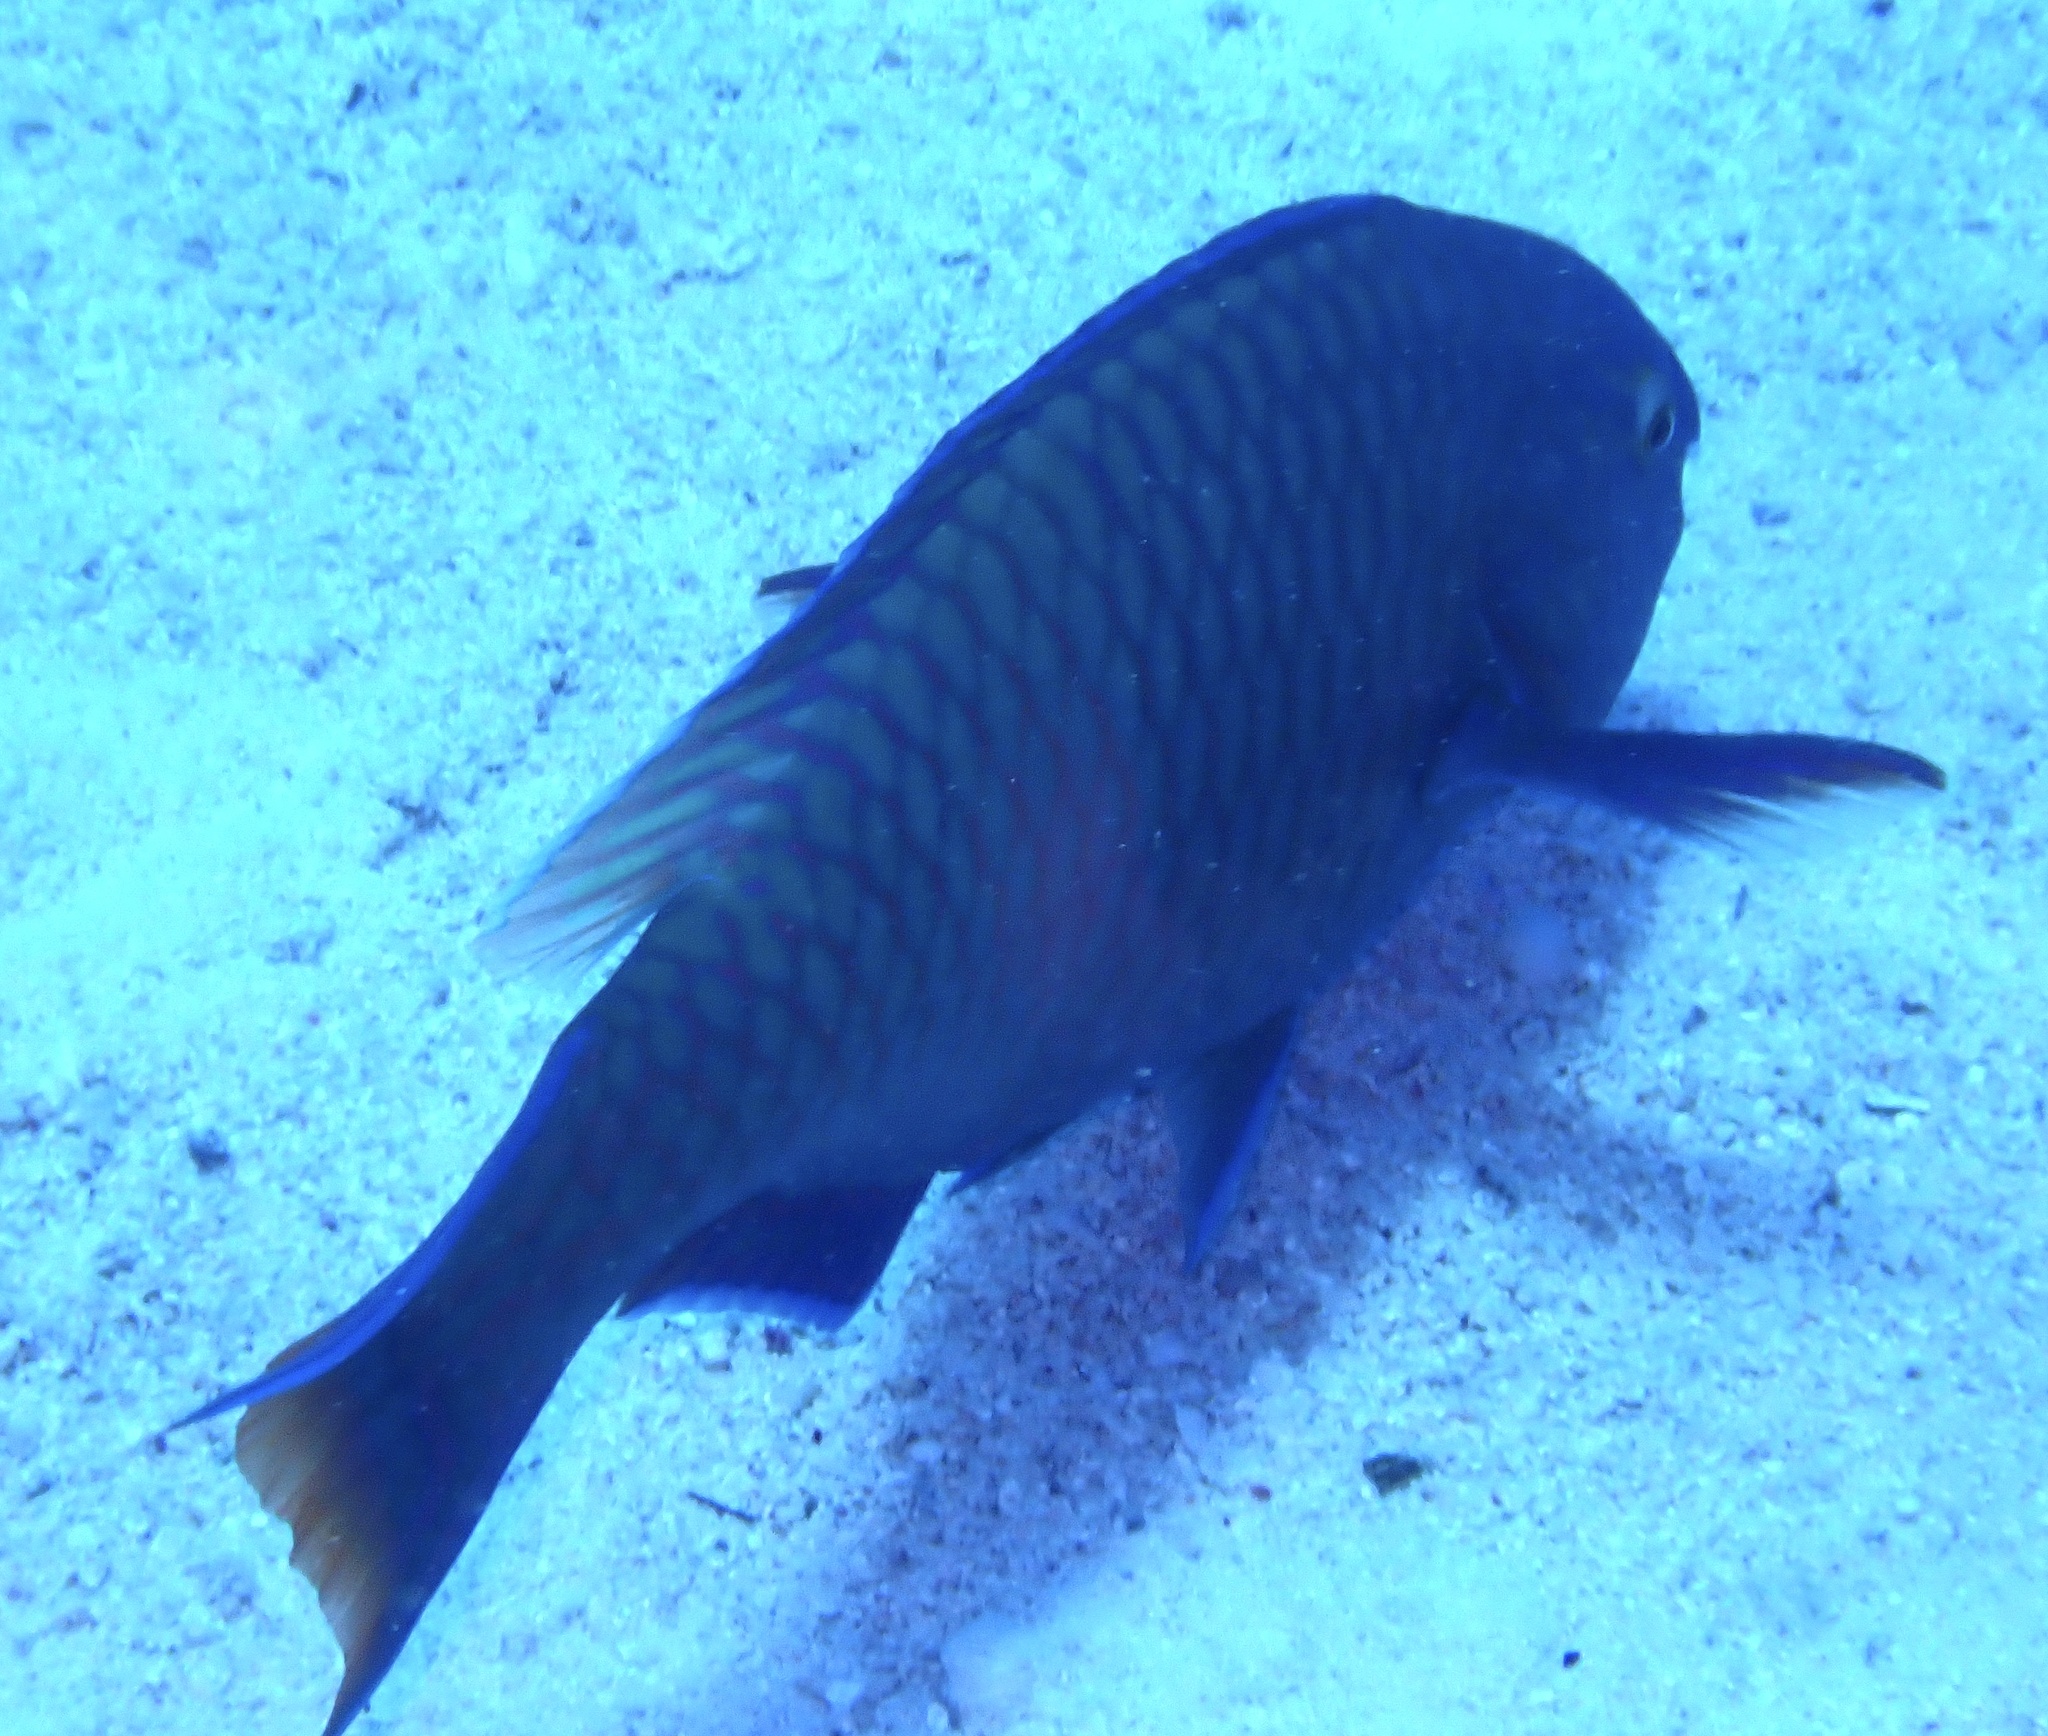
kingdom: Animalia
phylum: Chordata
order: Perciformes
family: Scaridae
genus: Scarus
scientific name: Scarus fuscopurpureus
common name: Purple-brown parrotfish
